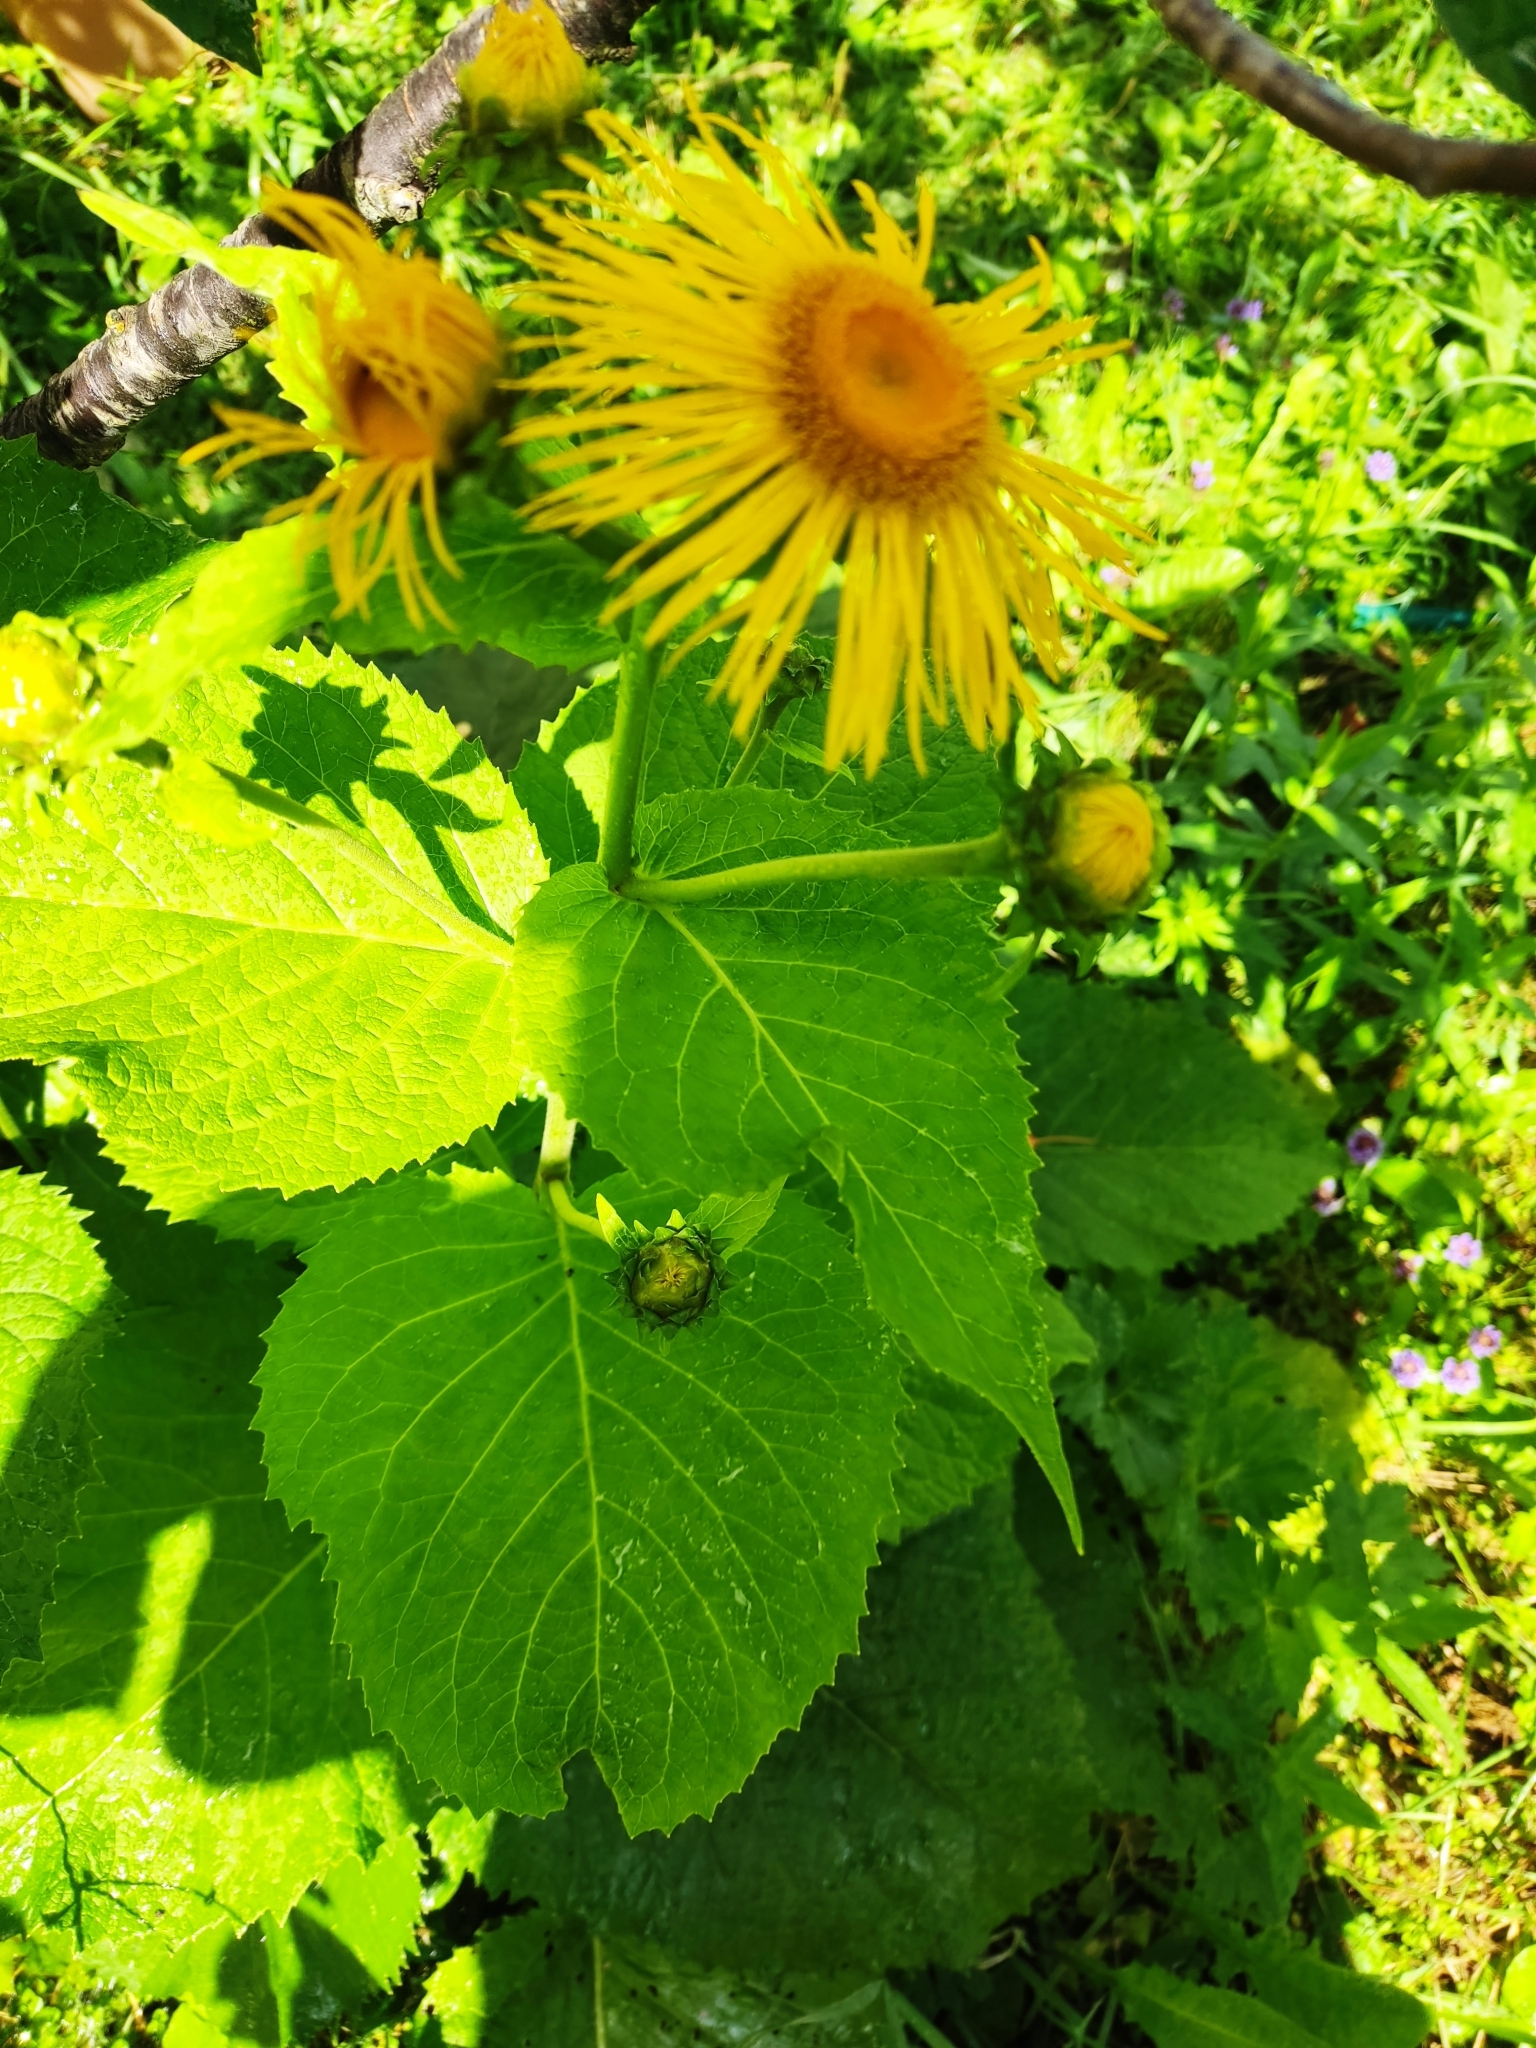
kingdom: Plantae
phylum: Tracheophyta
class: Magnoliopsida
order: Asterales
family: Asteraceae
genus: Telekia
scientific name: Telekia speciosa
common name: Yellow oxeye
